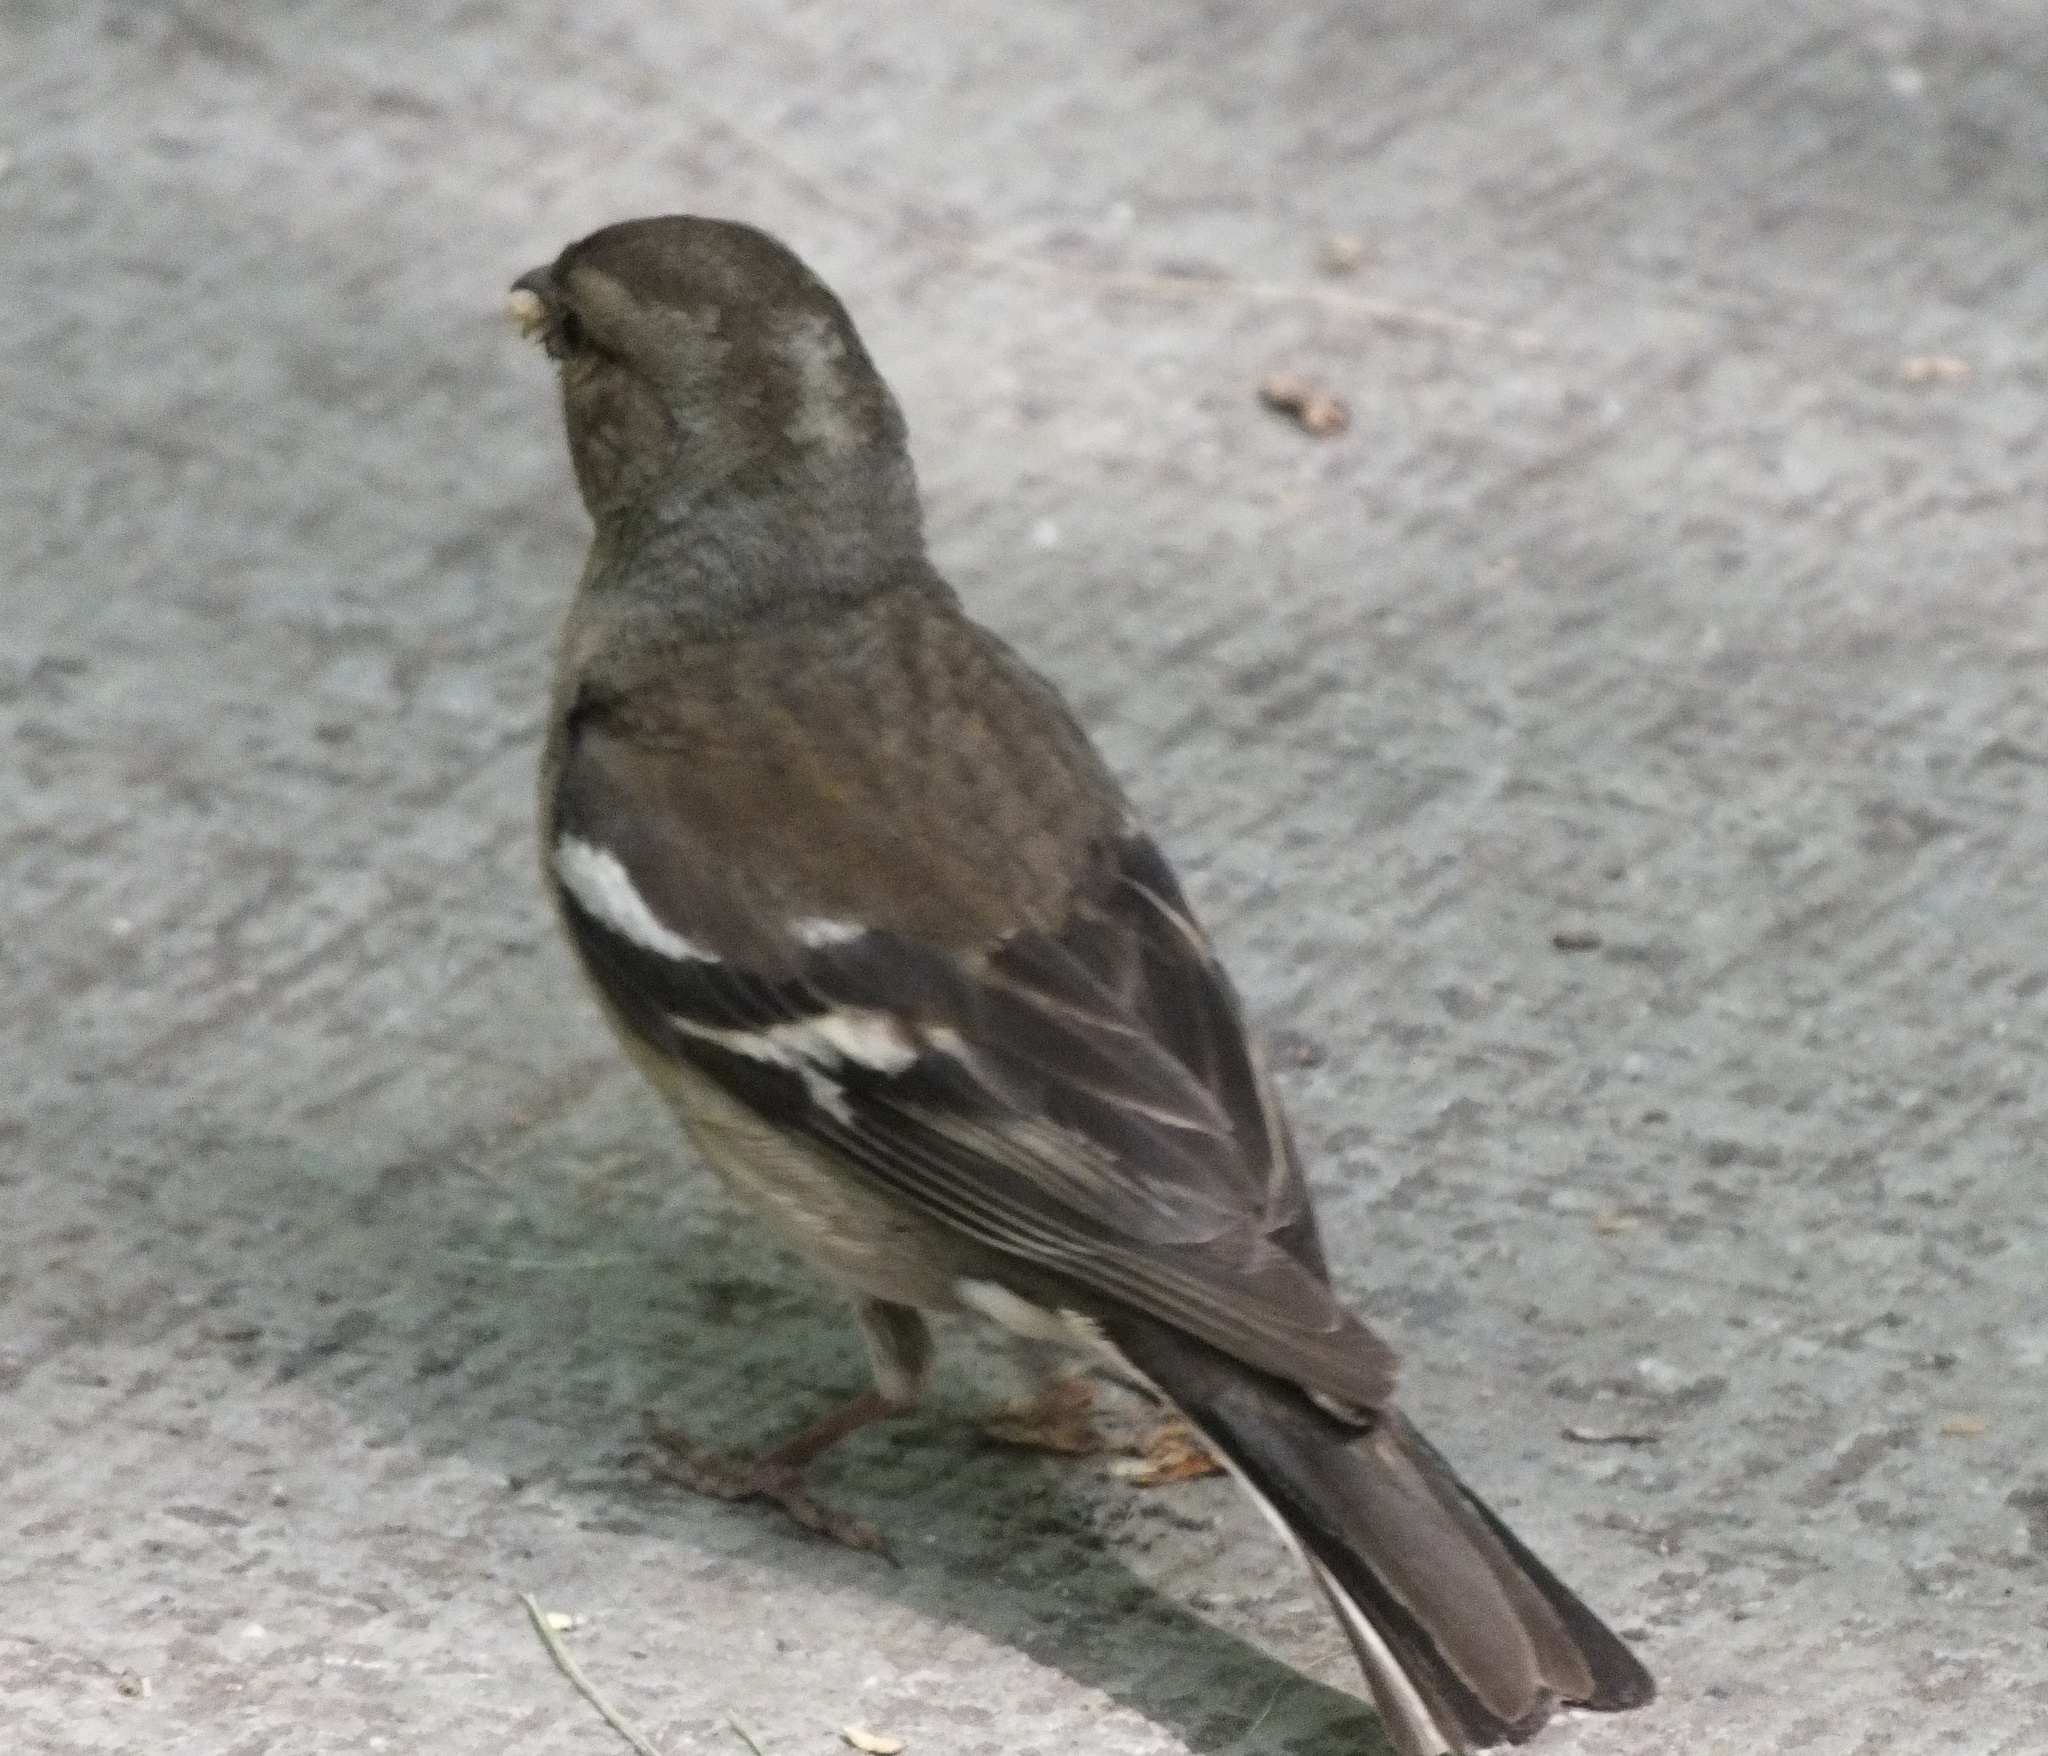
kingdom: Animalia
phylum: Chordata
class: Aves
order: Passeriformes
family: Fringillidae
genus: Fringilla
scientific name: Fringilla coelebs
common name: Common chaffinch
